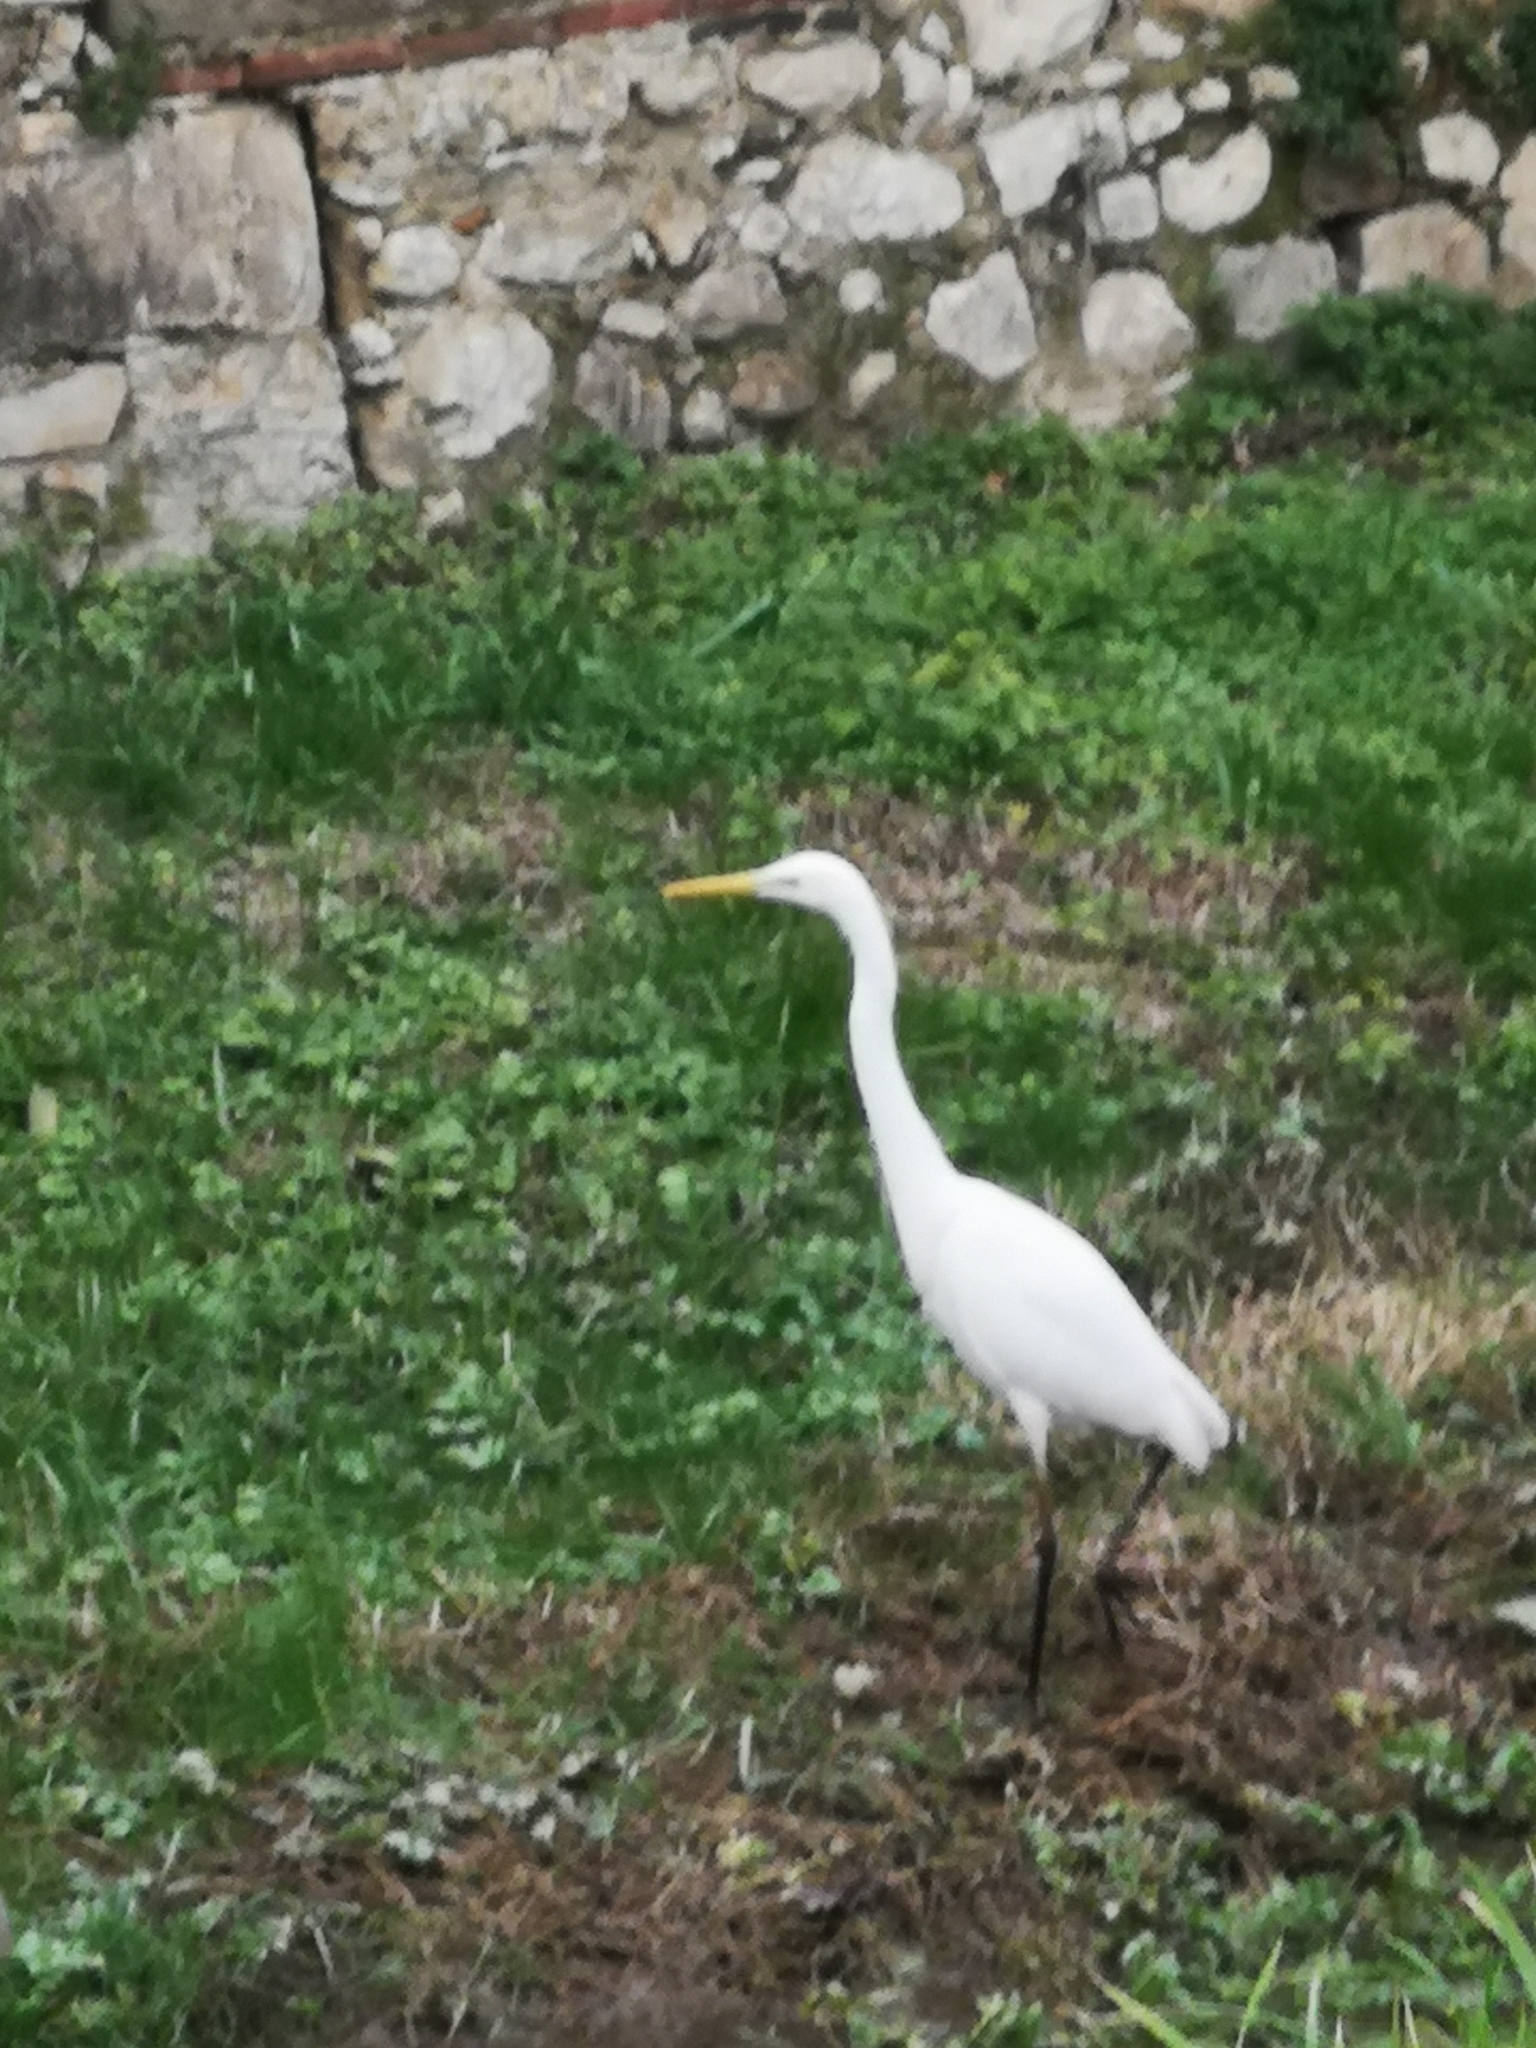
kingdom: Animalia
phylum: Chordata
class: Aves
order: Pelecaniformes
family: Ardeidae
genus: Ardea
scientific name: Ardea alba
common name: Great egret
